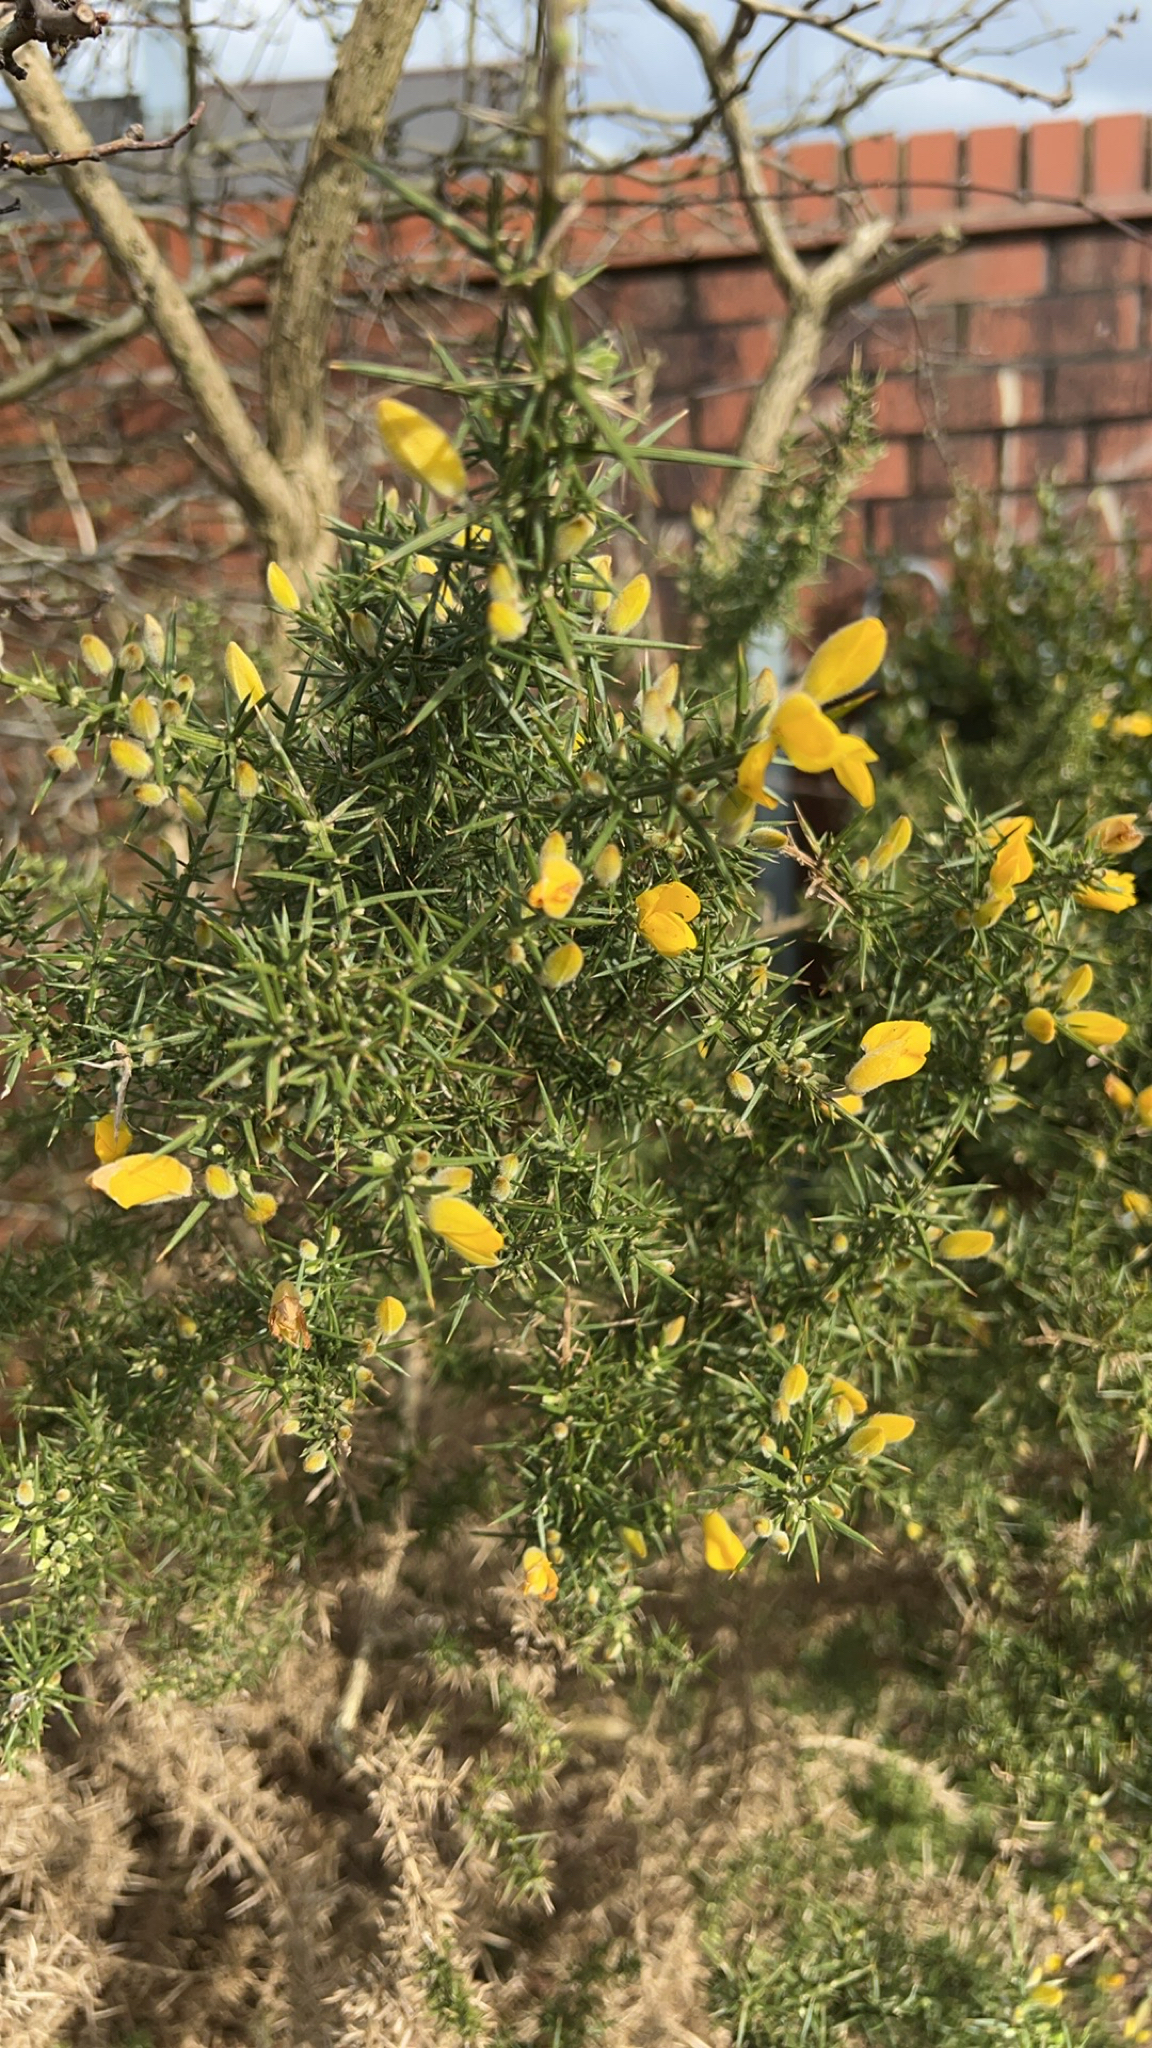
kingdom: Plantae
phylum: Tracheophyta
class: Magnoliopsida
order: Fabales
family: Fabaceae
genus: Ulex
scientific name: Ulex europaeus
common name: Common gorse
